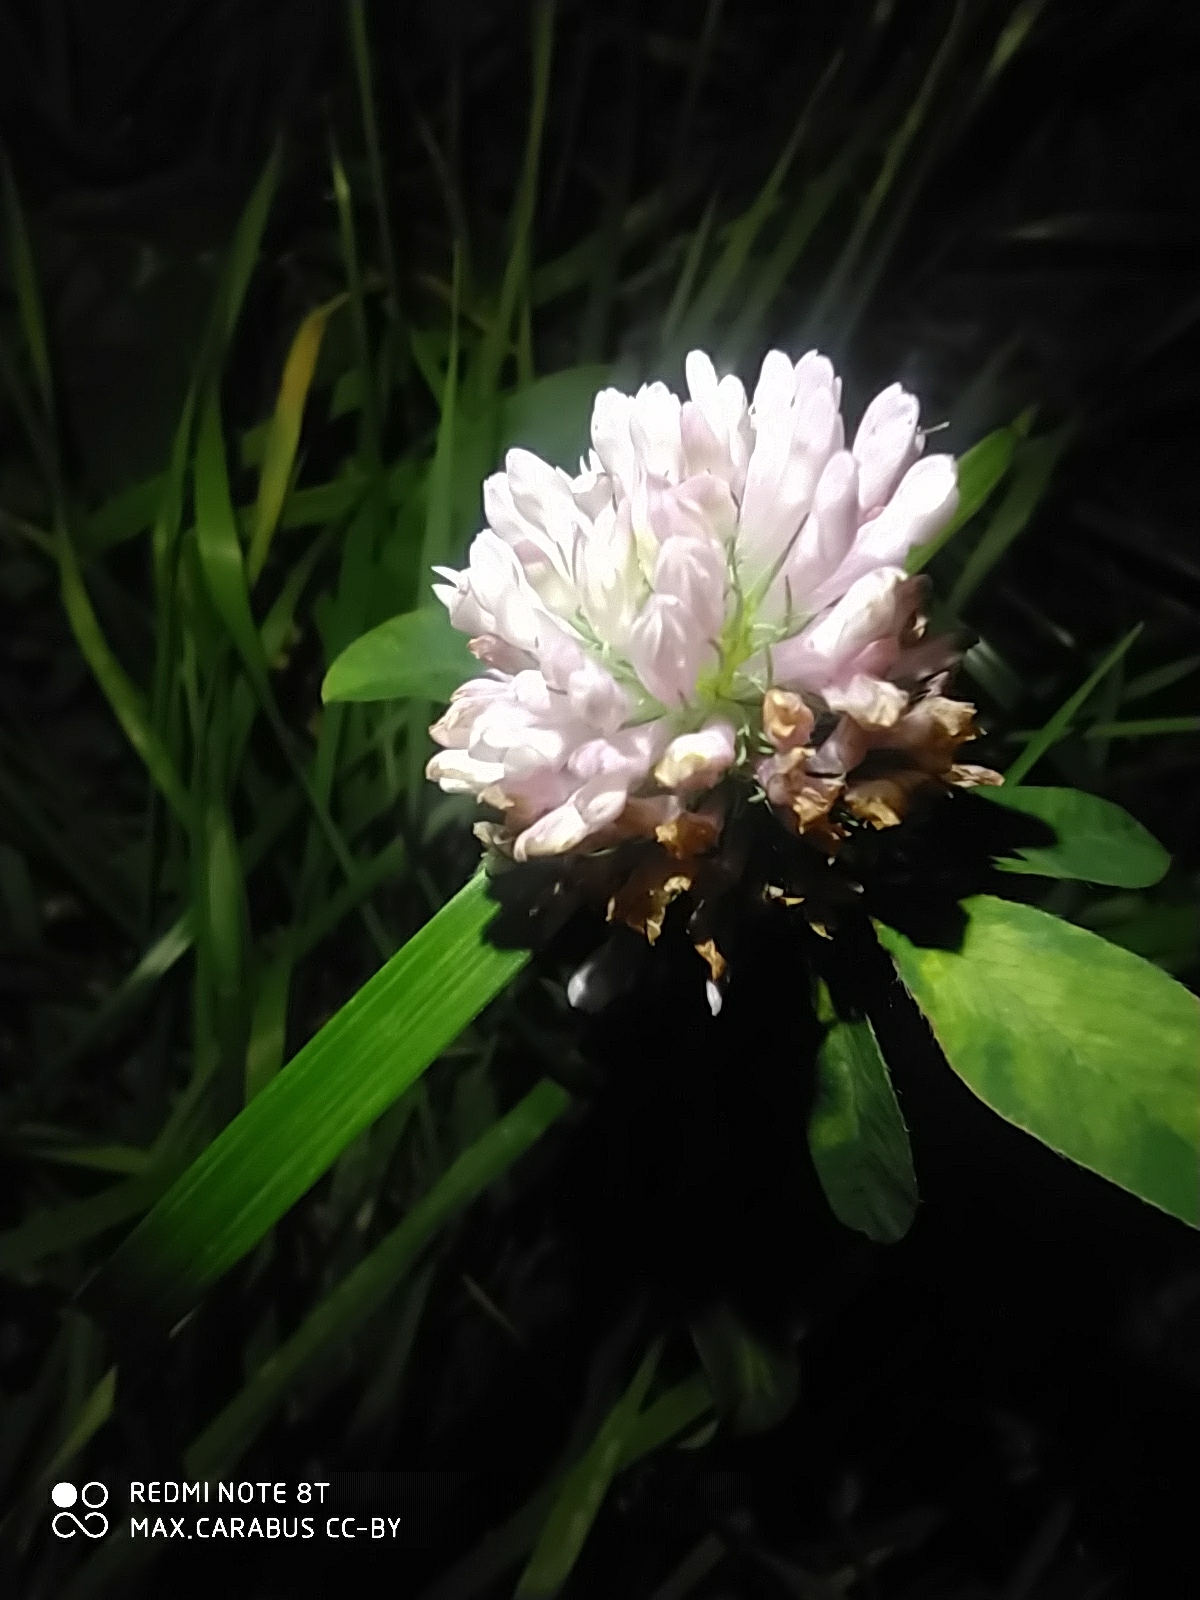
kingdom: Plantae
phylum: Tracheophyta
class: Magnoliopsida
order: Fabales
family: Fabaceae
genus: Trifolium
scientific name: Trifolium pratense
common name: Red clover
